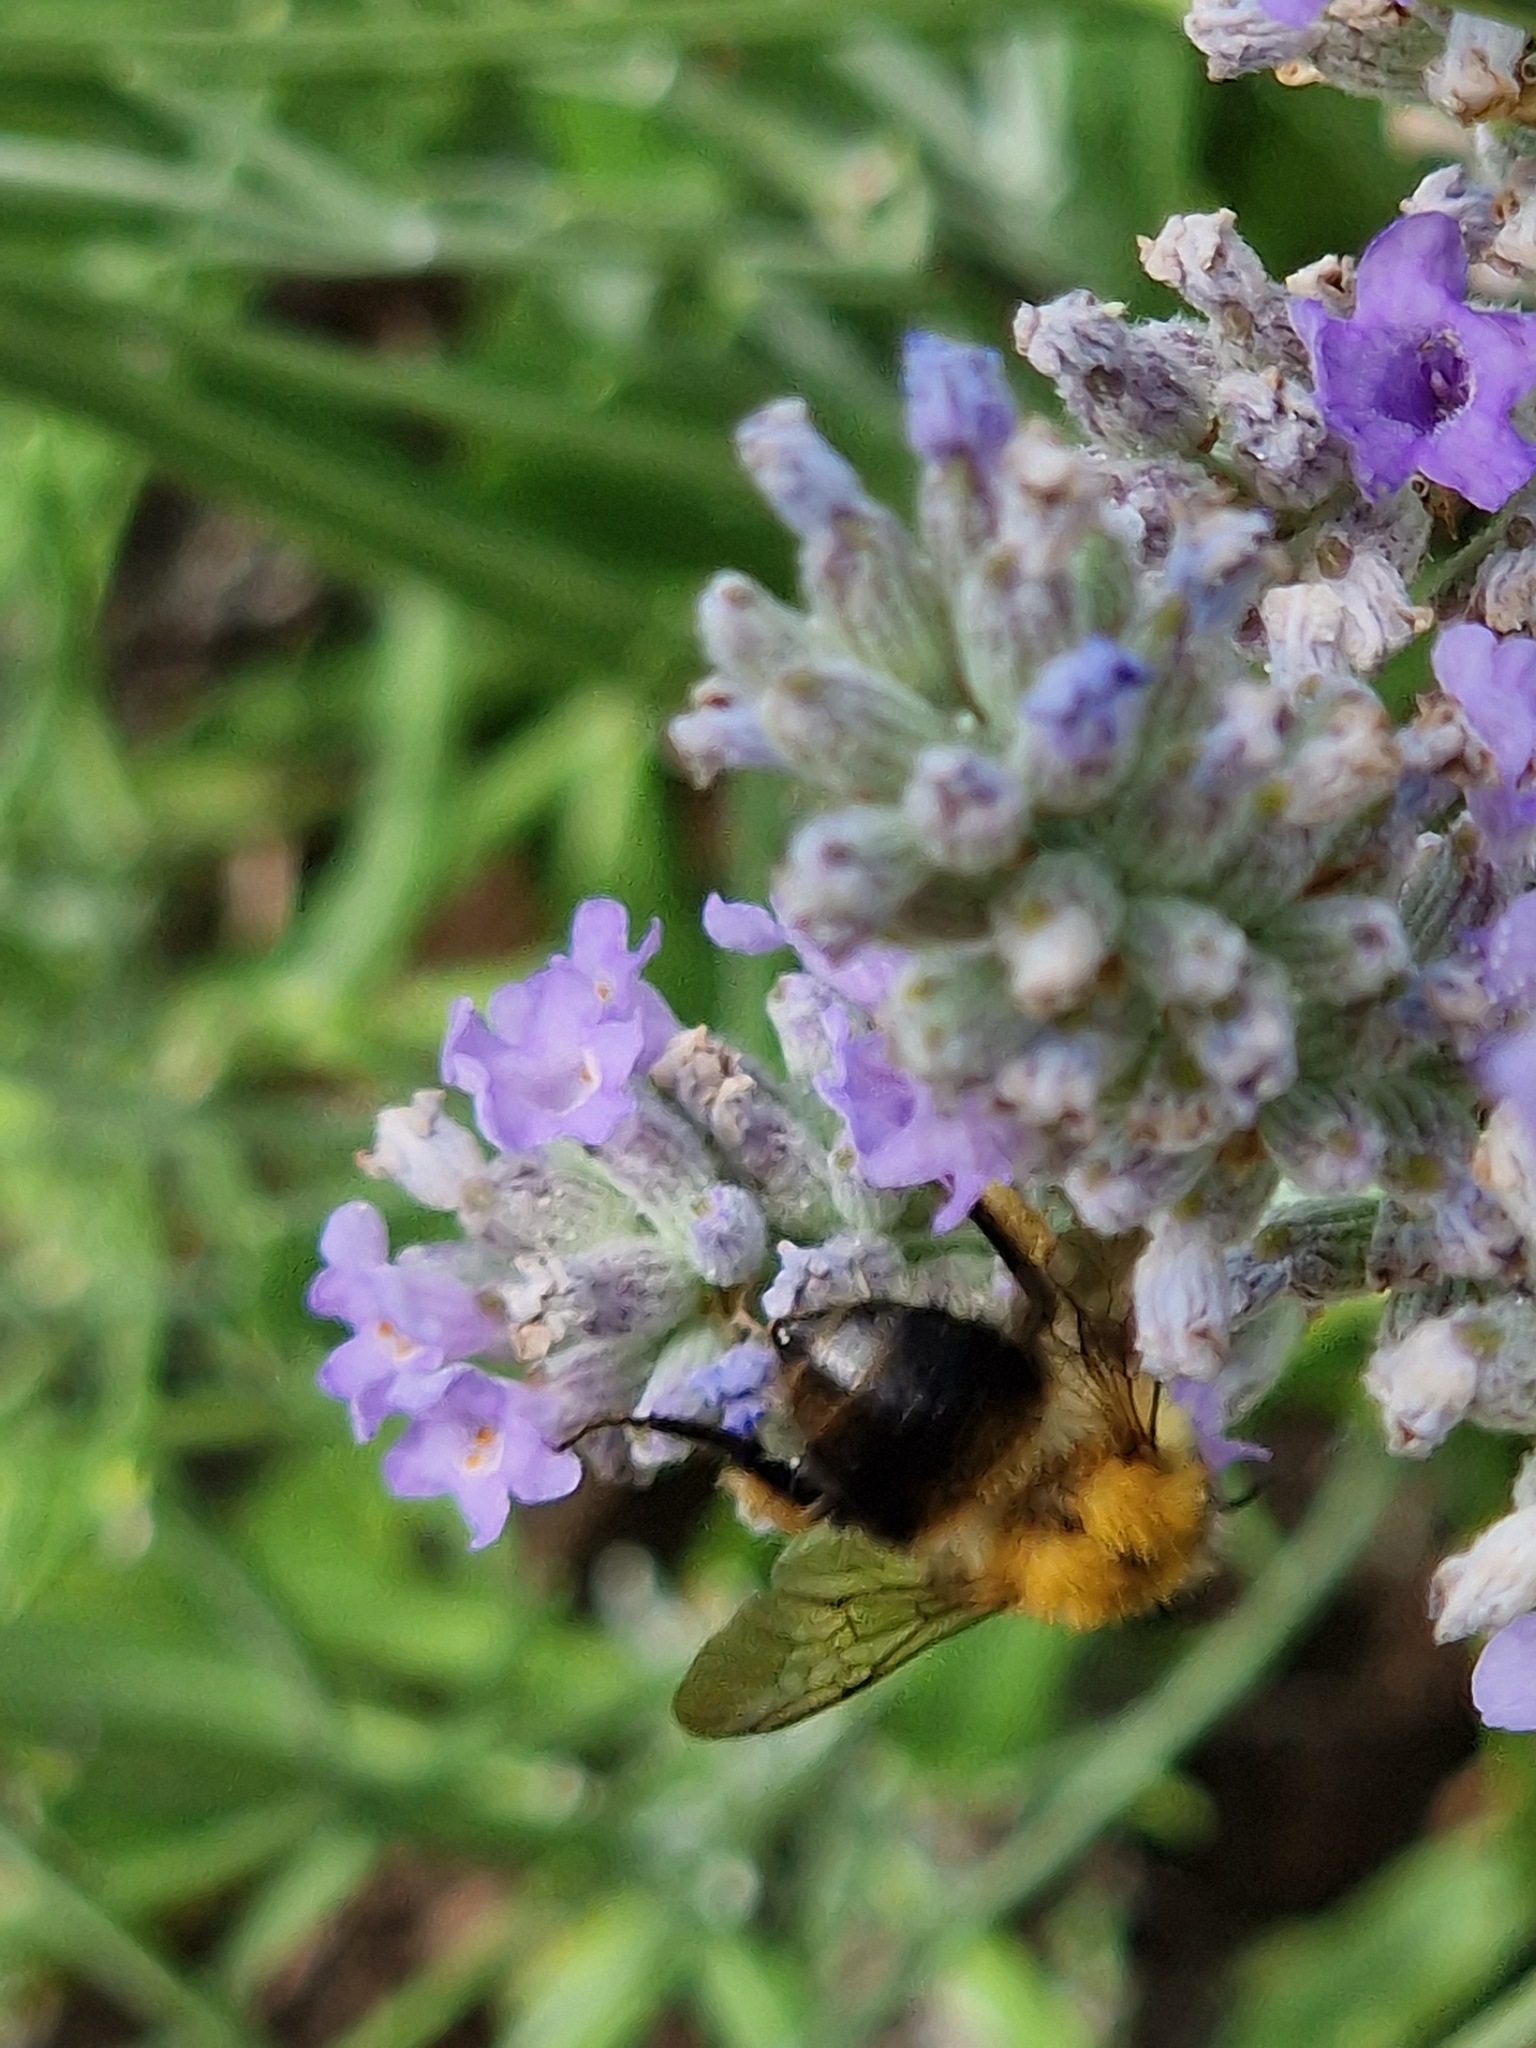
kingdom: Animalia
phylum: Arthropoda
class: Insecta
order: Hymenoptera
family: Apidae
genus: Bombus
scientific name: Bombus pascuorum
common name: Common carder bee
